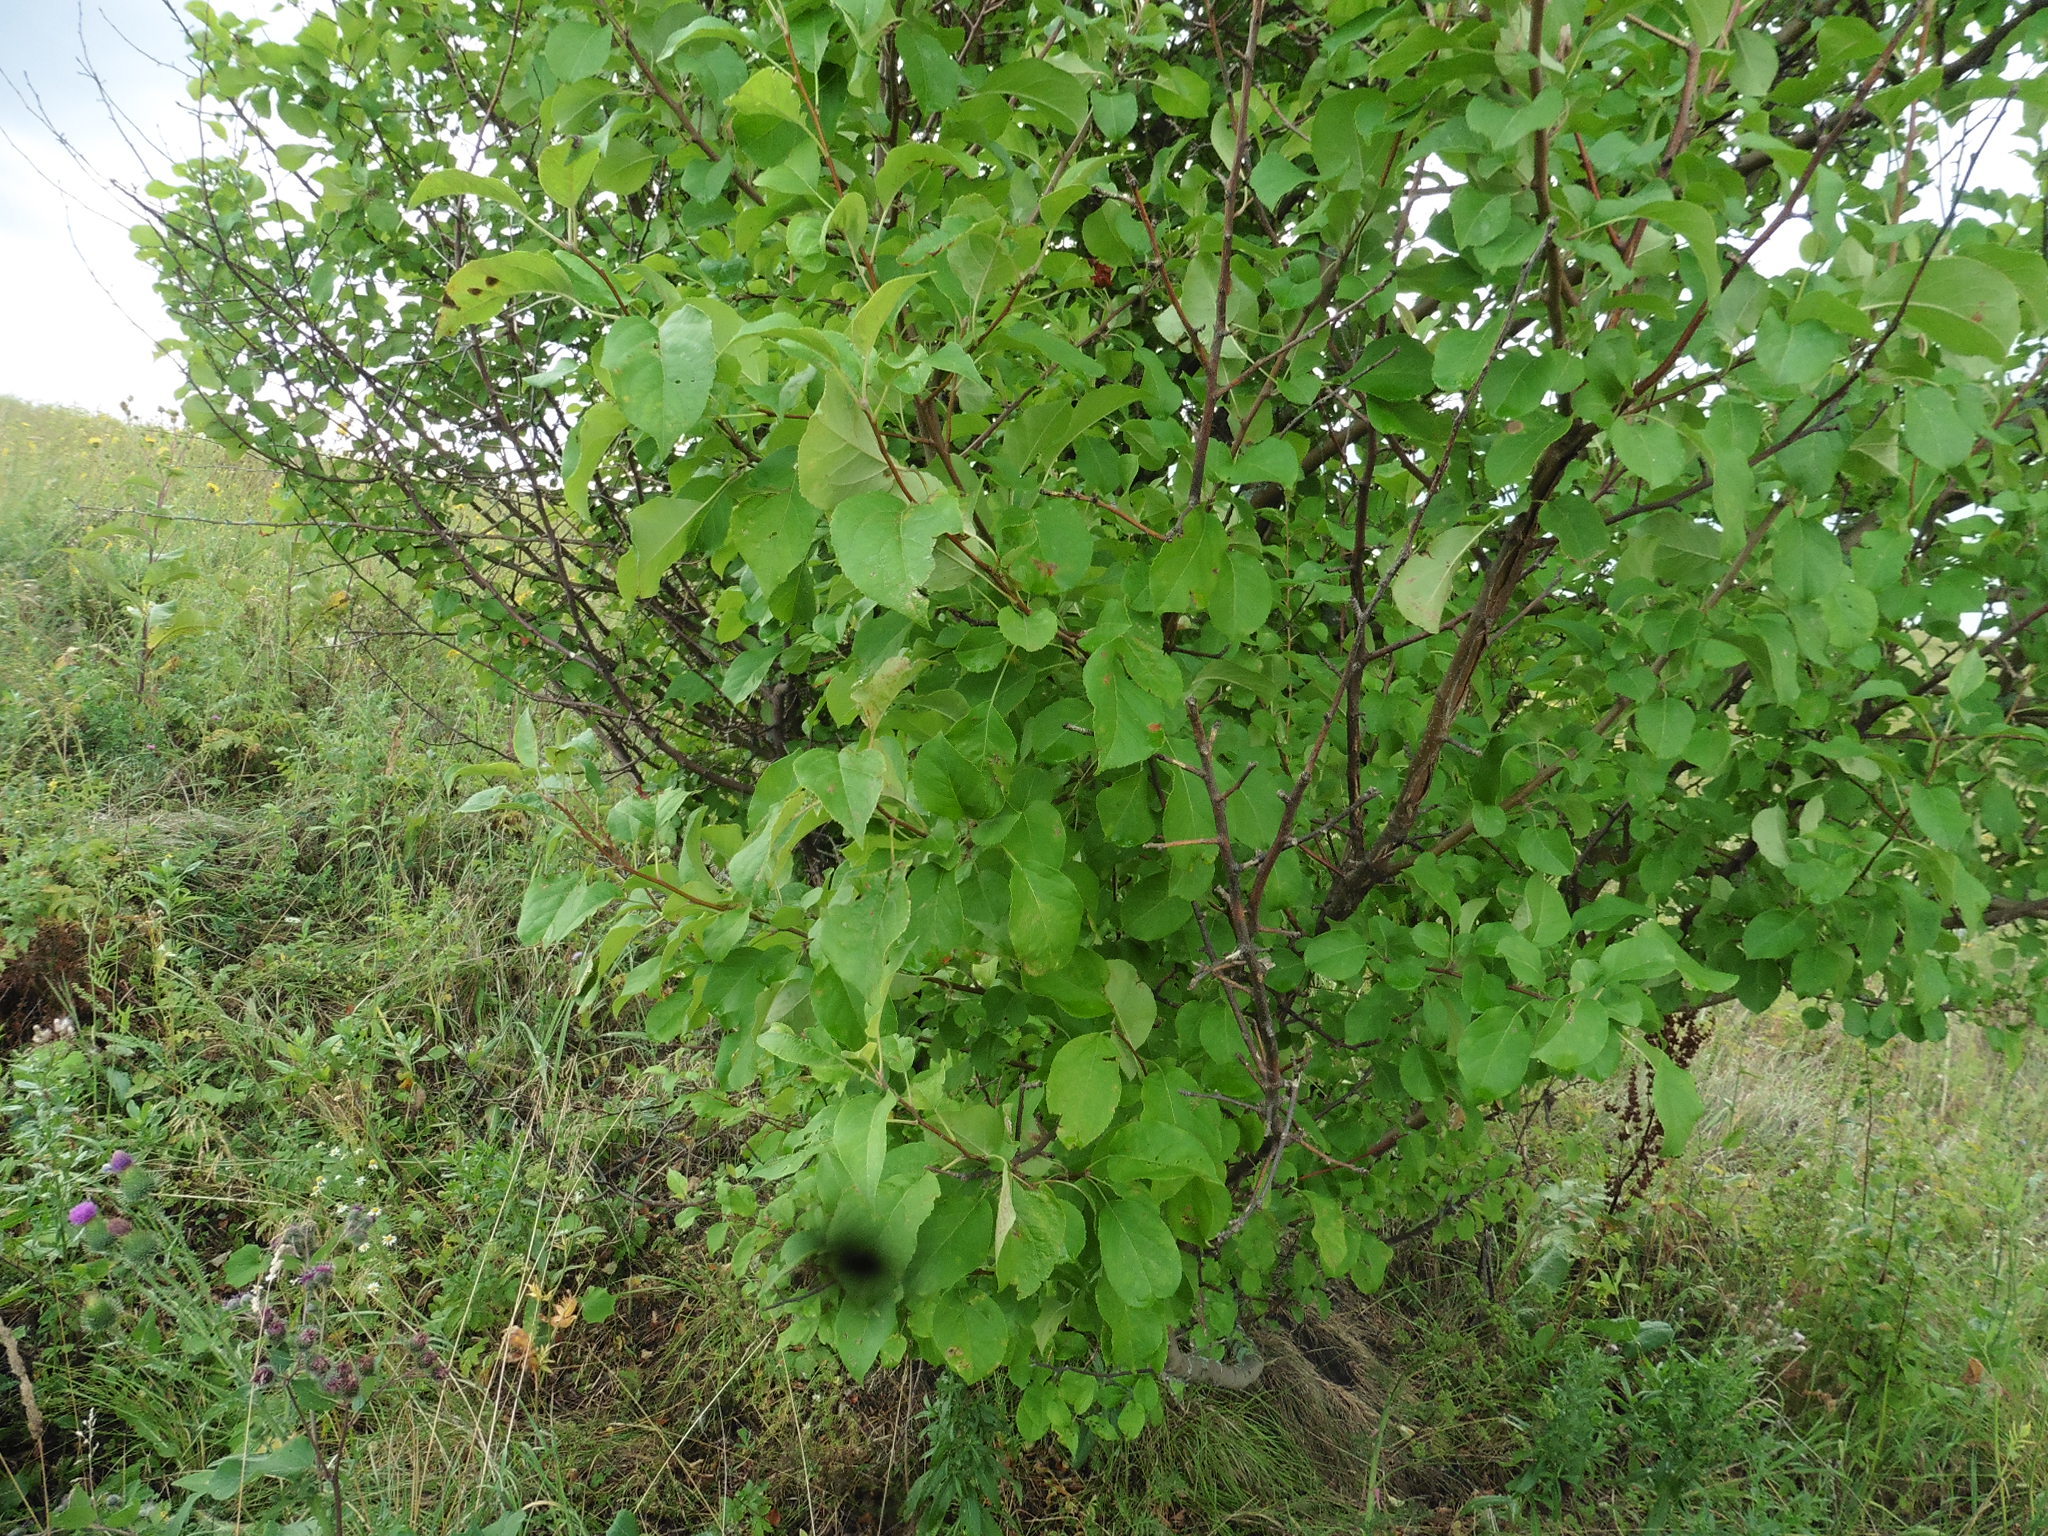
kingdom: Plantae
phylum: Tracheophyta
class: Magnoliopsida
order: Rosales
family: Rosaceae
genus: Malus
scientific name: Malus domestica
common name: Apple
